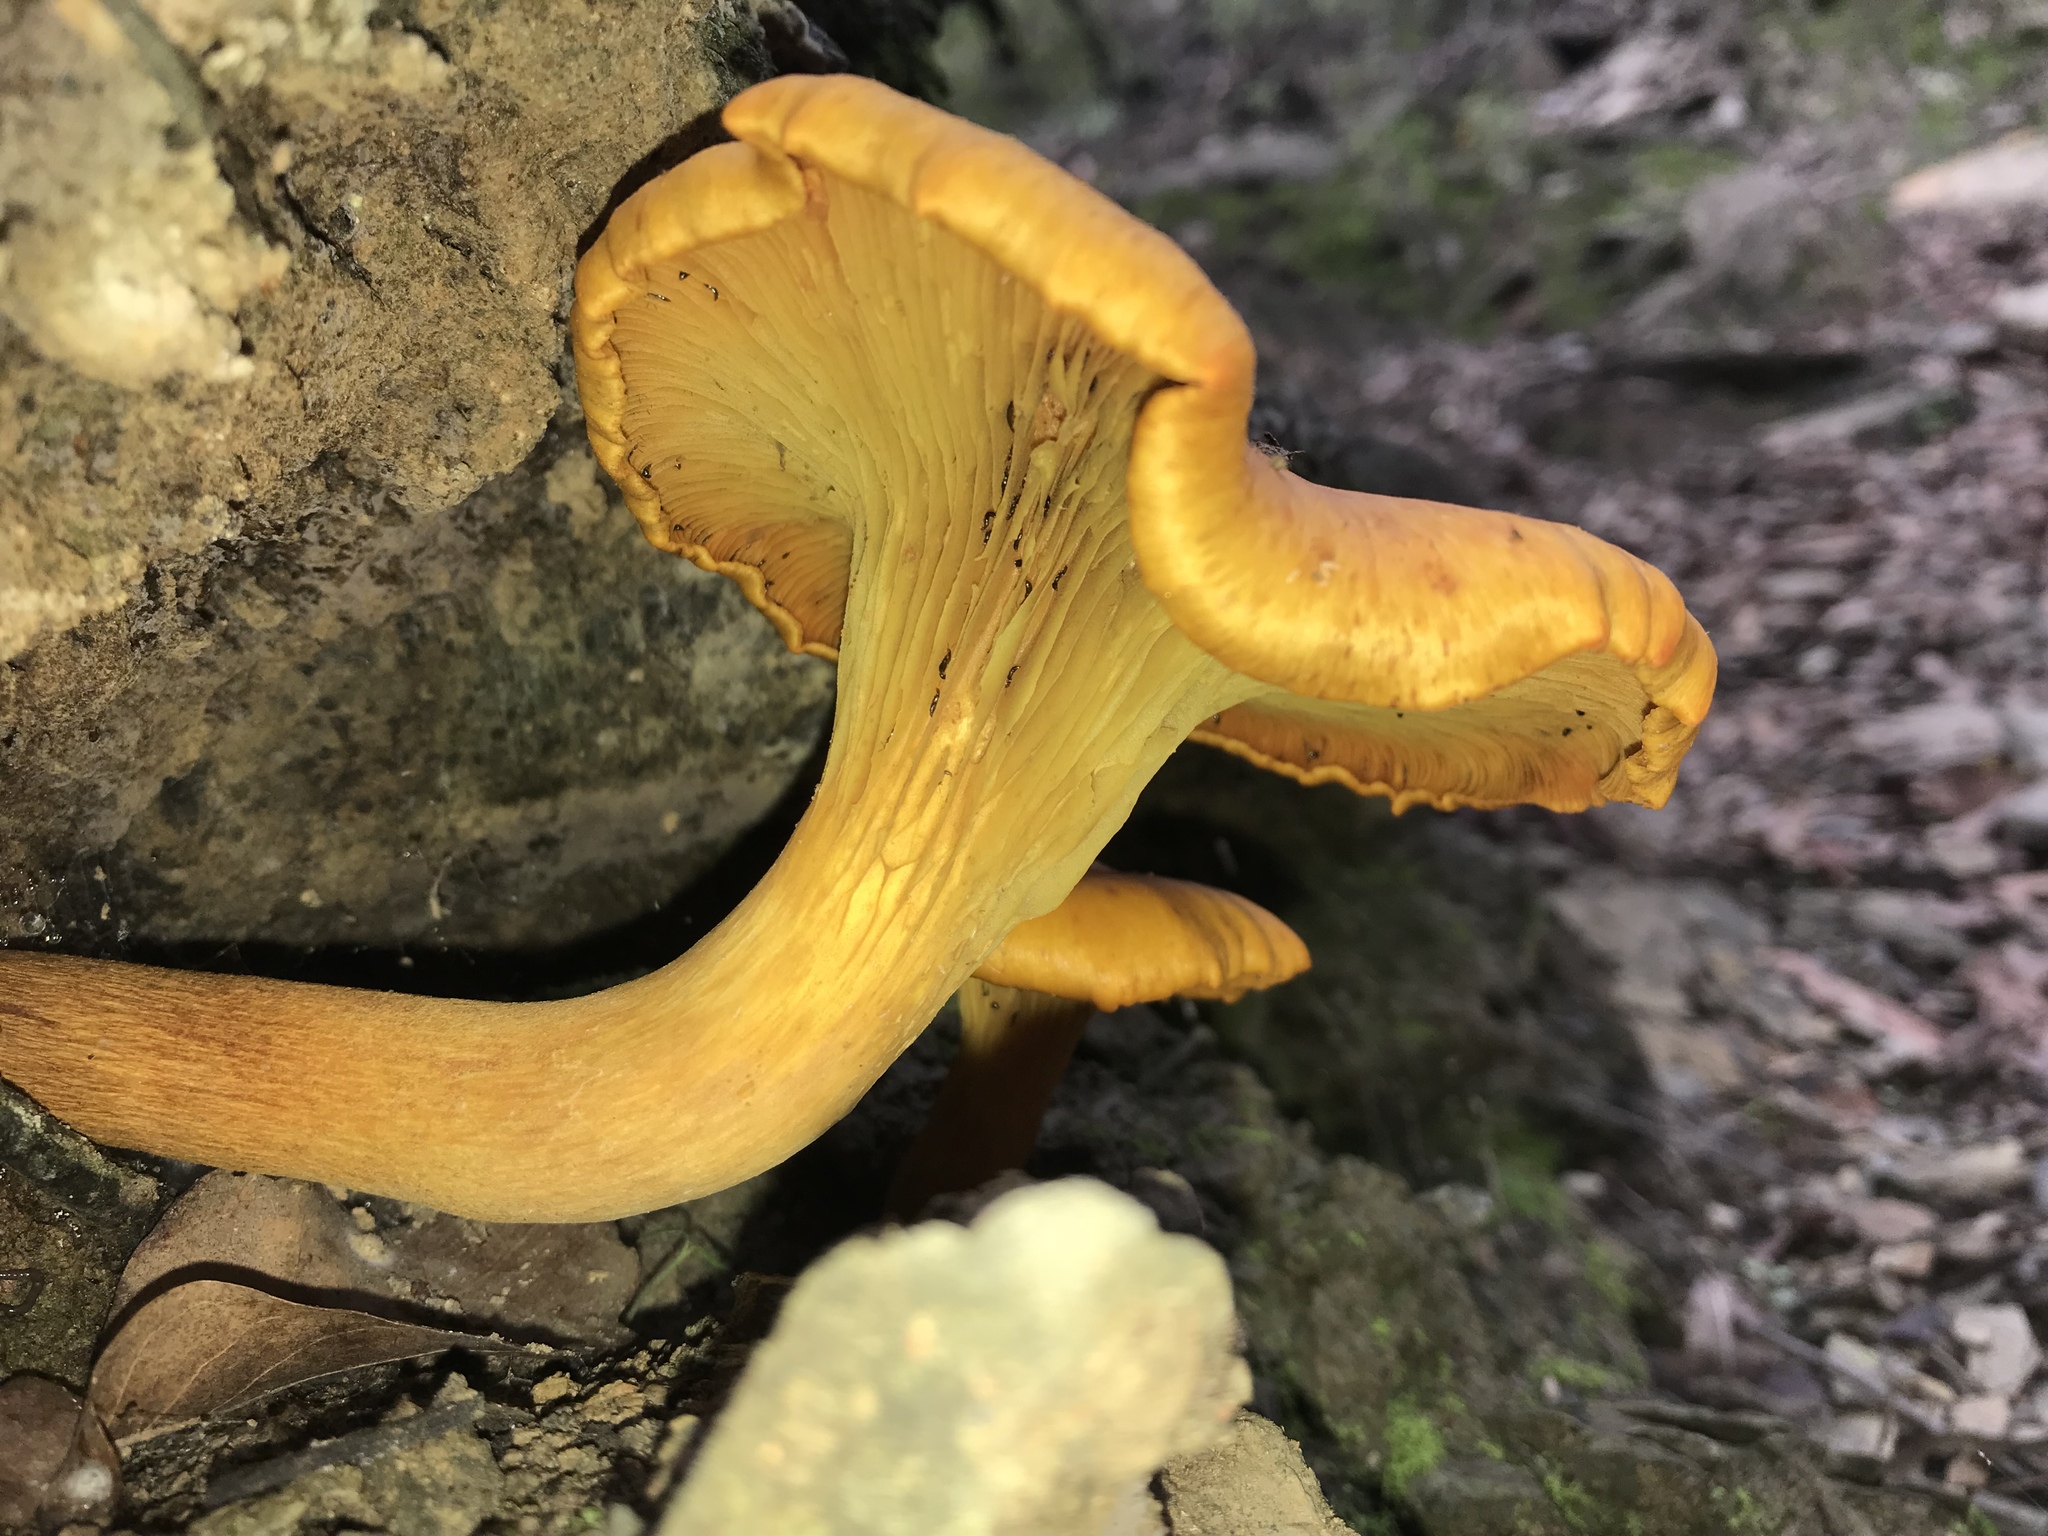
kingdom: Fungi
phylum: Basidiomycota
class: Agaricomycetes
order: Agaricales
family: Omphalotaceae
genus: Omphalotus
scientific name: Omphalotus illudens
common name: Jack o lantern
